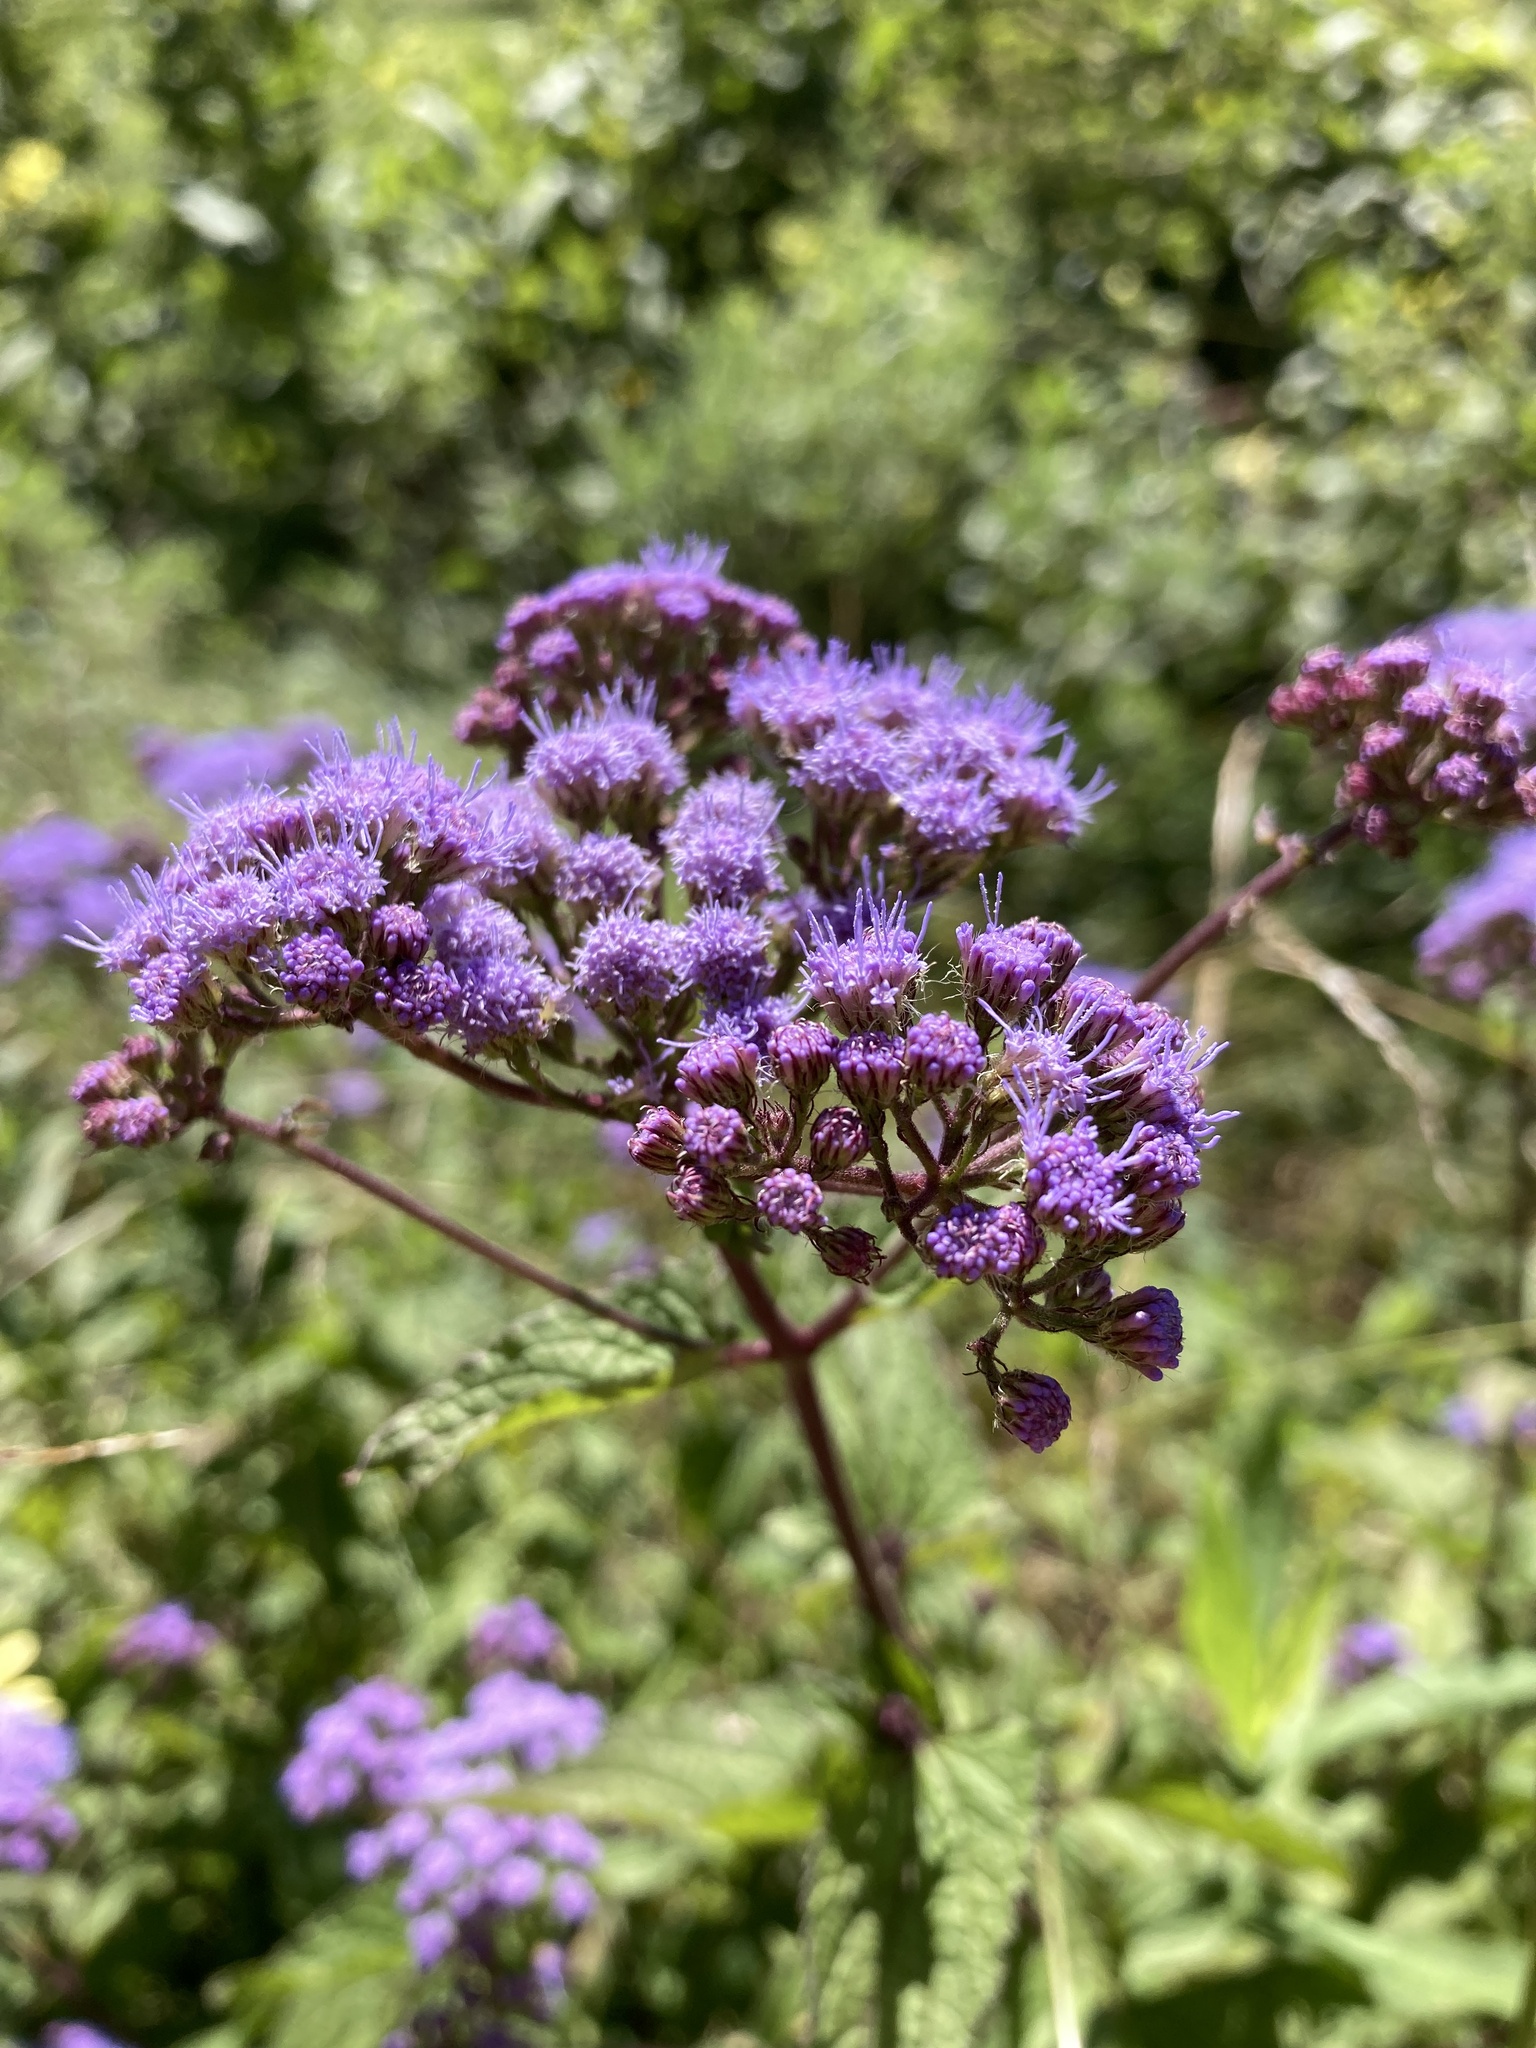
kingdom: Plantae
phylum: Tracheophyta
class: Magnoliopsida
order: Asterales
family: Asteraceae
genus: Conoclinium
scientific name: Conoclinium coelestinum
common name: Blue mistflower
